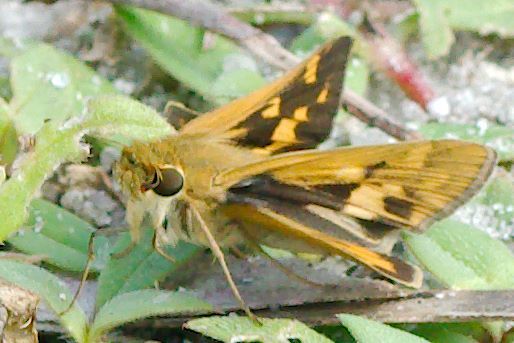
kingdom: Animalia
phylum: Arthropoda
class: Insecta
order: Lepidoptera
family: Hesperiidae
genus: Hylephila
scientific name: Hylephila phyleus
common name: Fiery skipper
